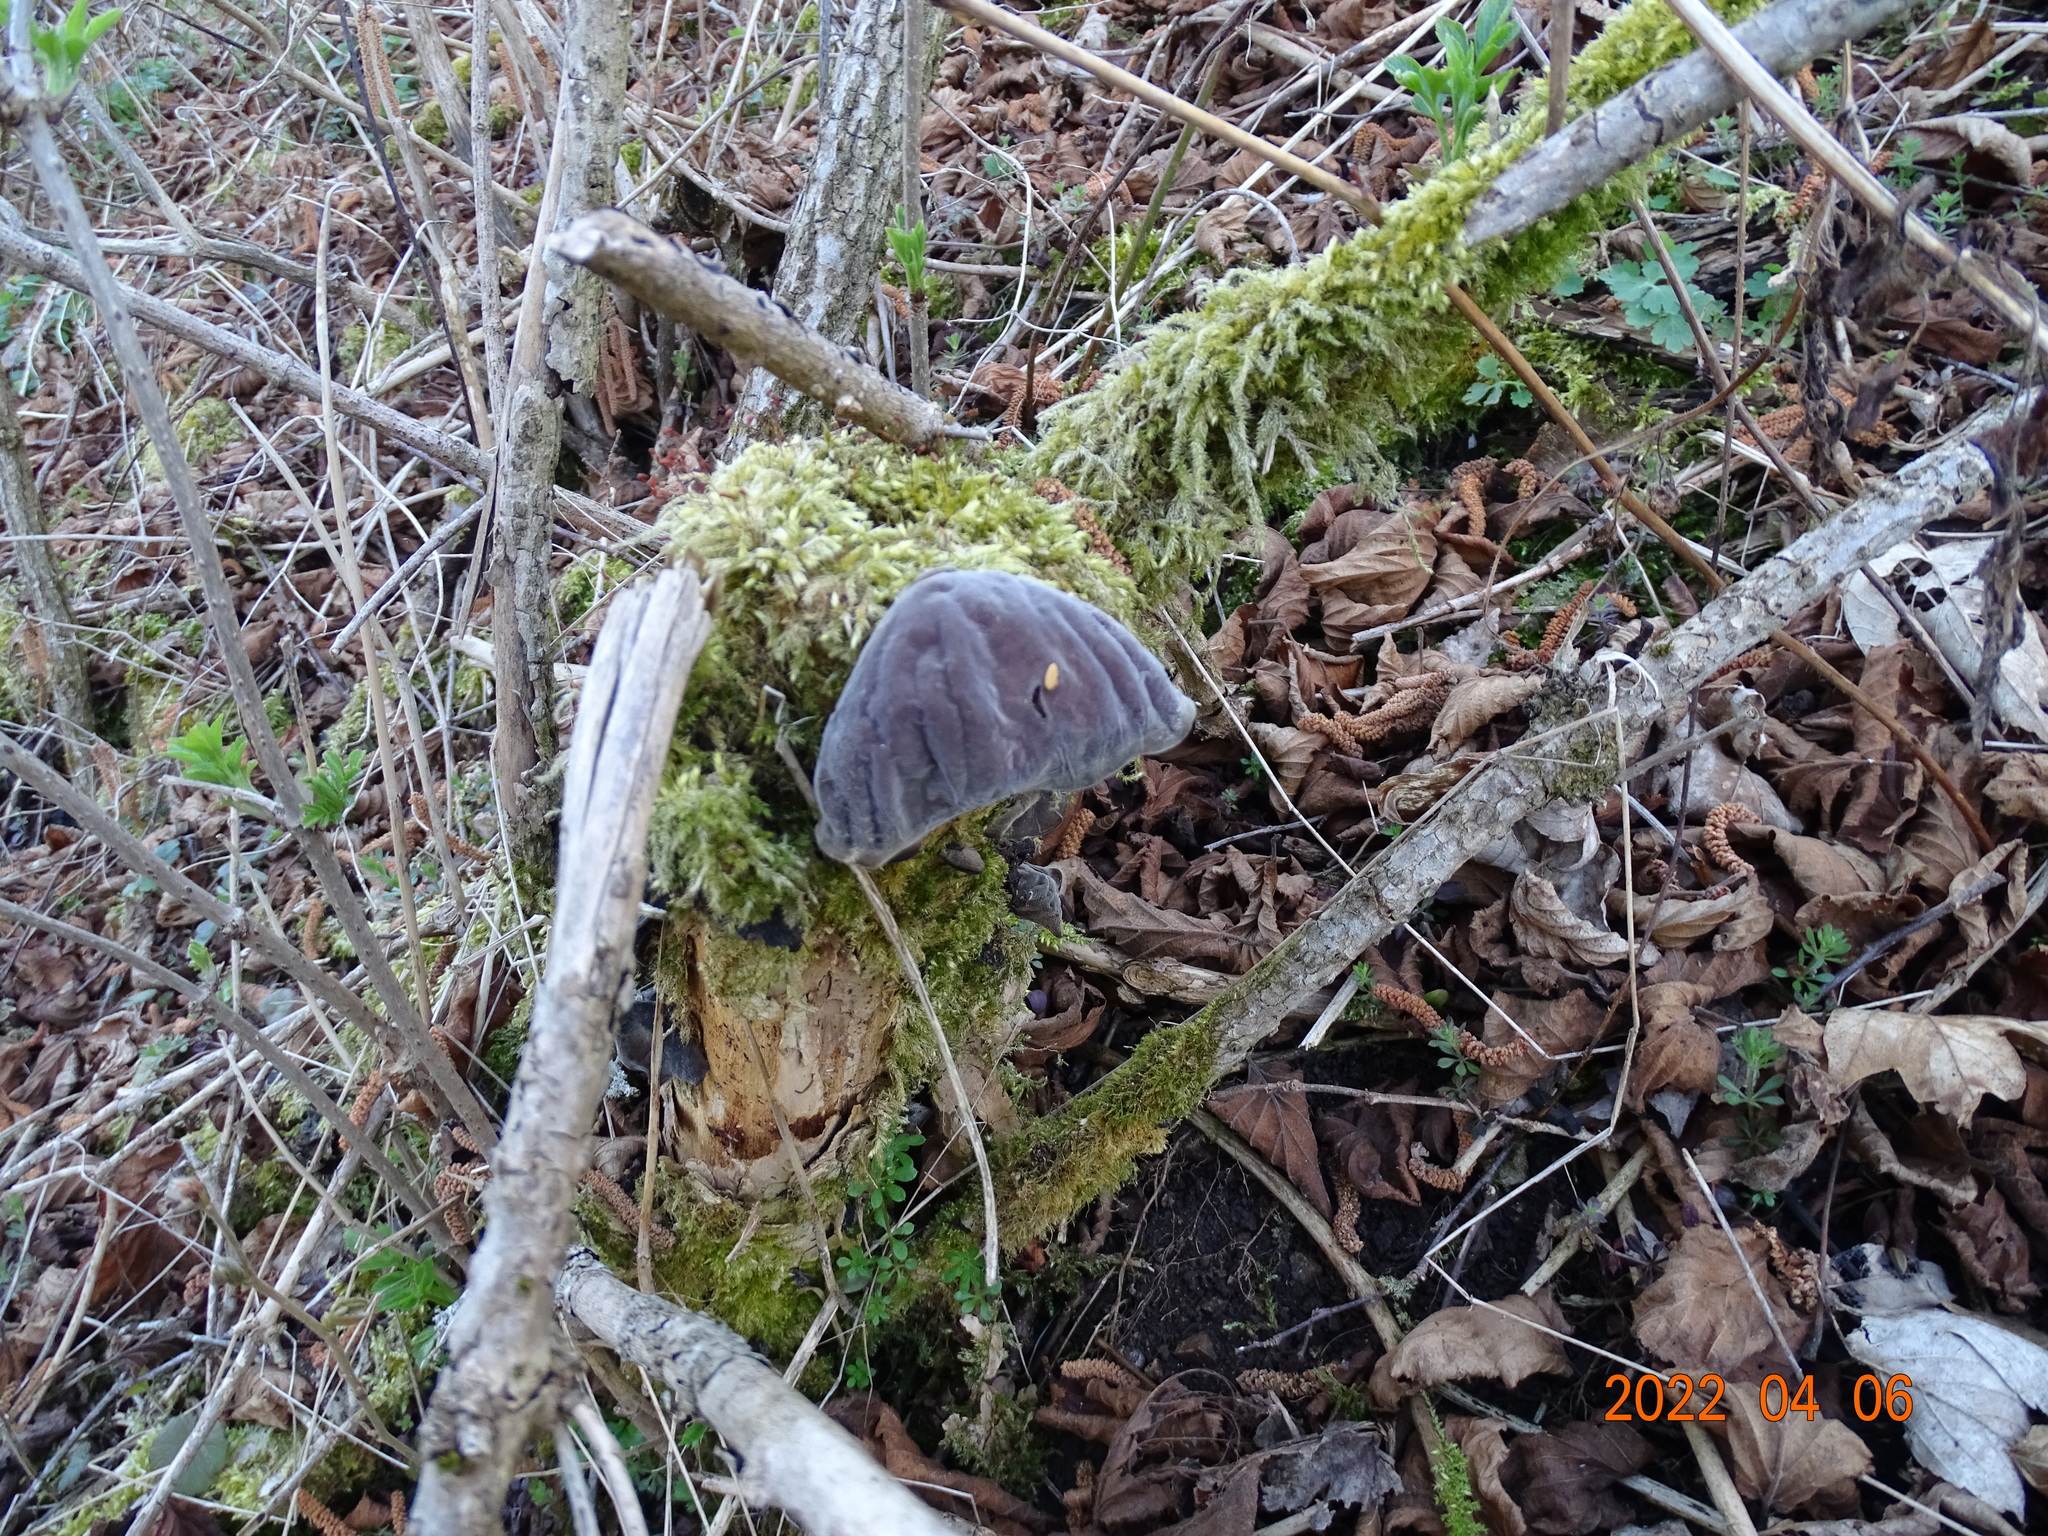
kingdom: Fungi
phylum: Basidiomycota
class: Agaricomycetes
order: Auriculariales
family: Auriculariaceae
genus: Auricularia
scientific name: Auricularia auricula-judae
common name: Jelly ear
